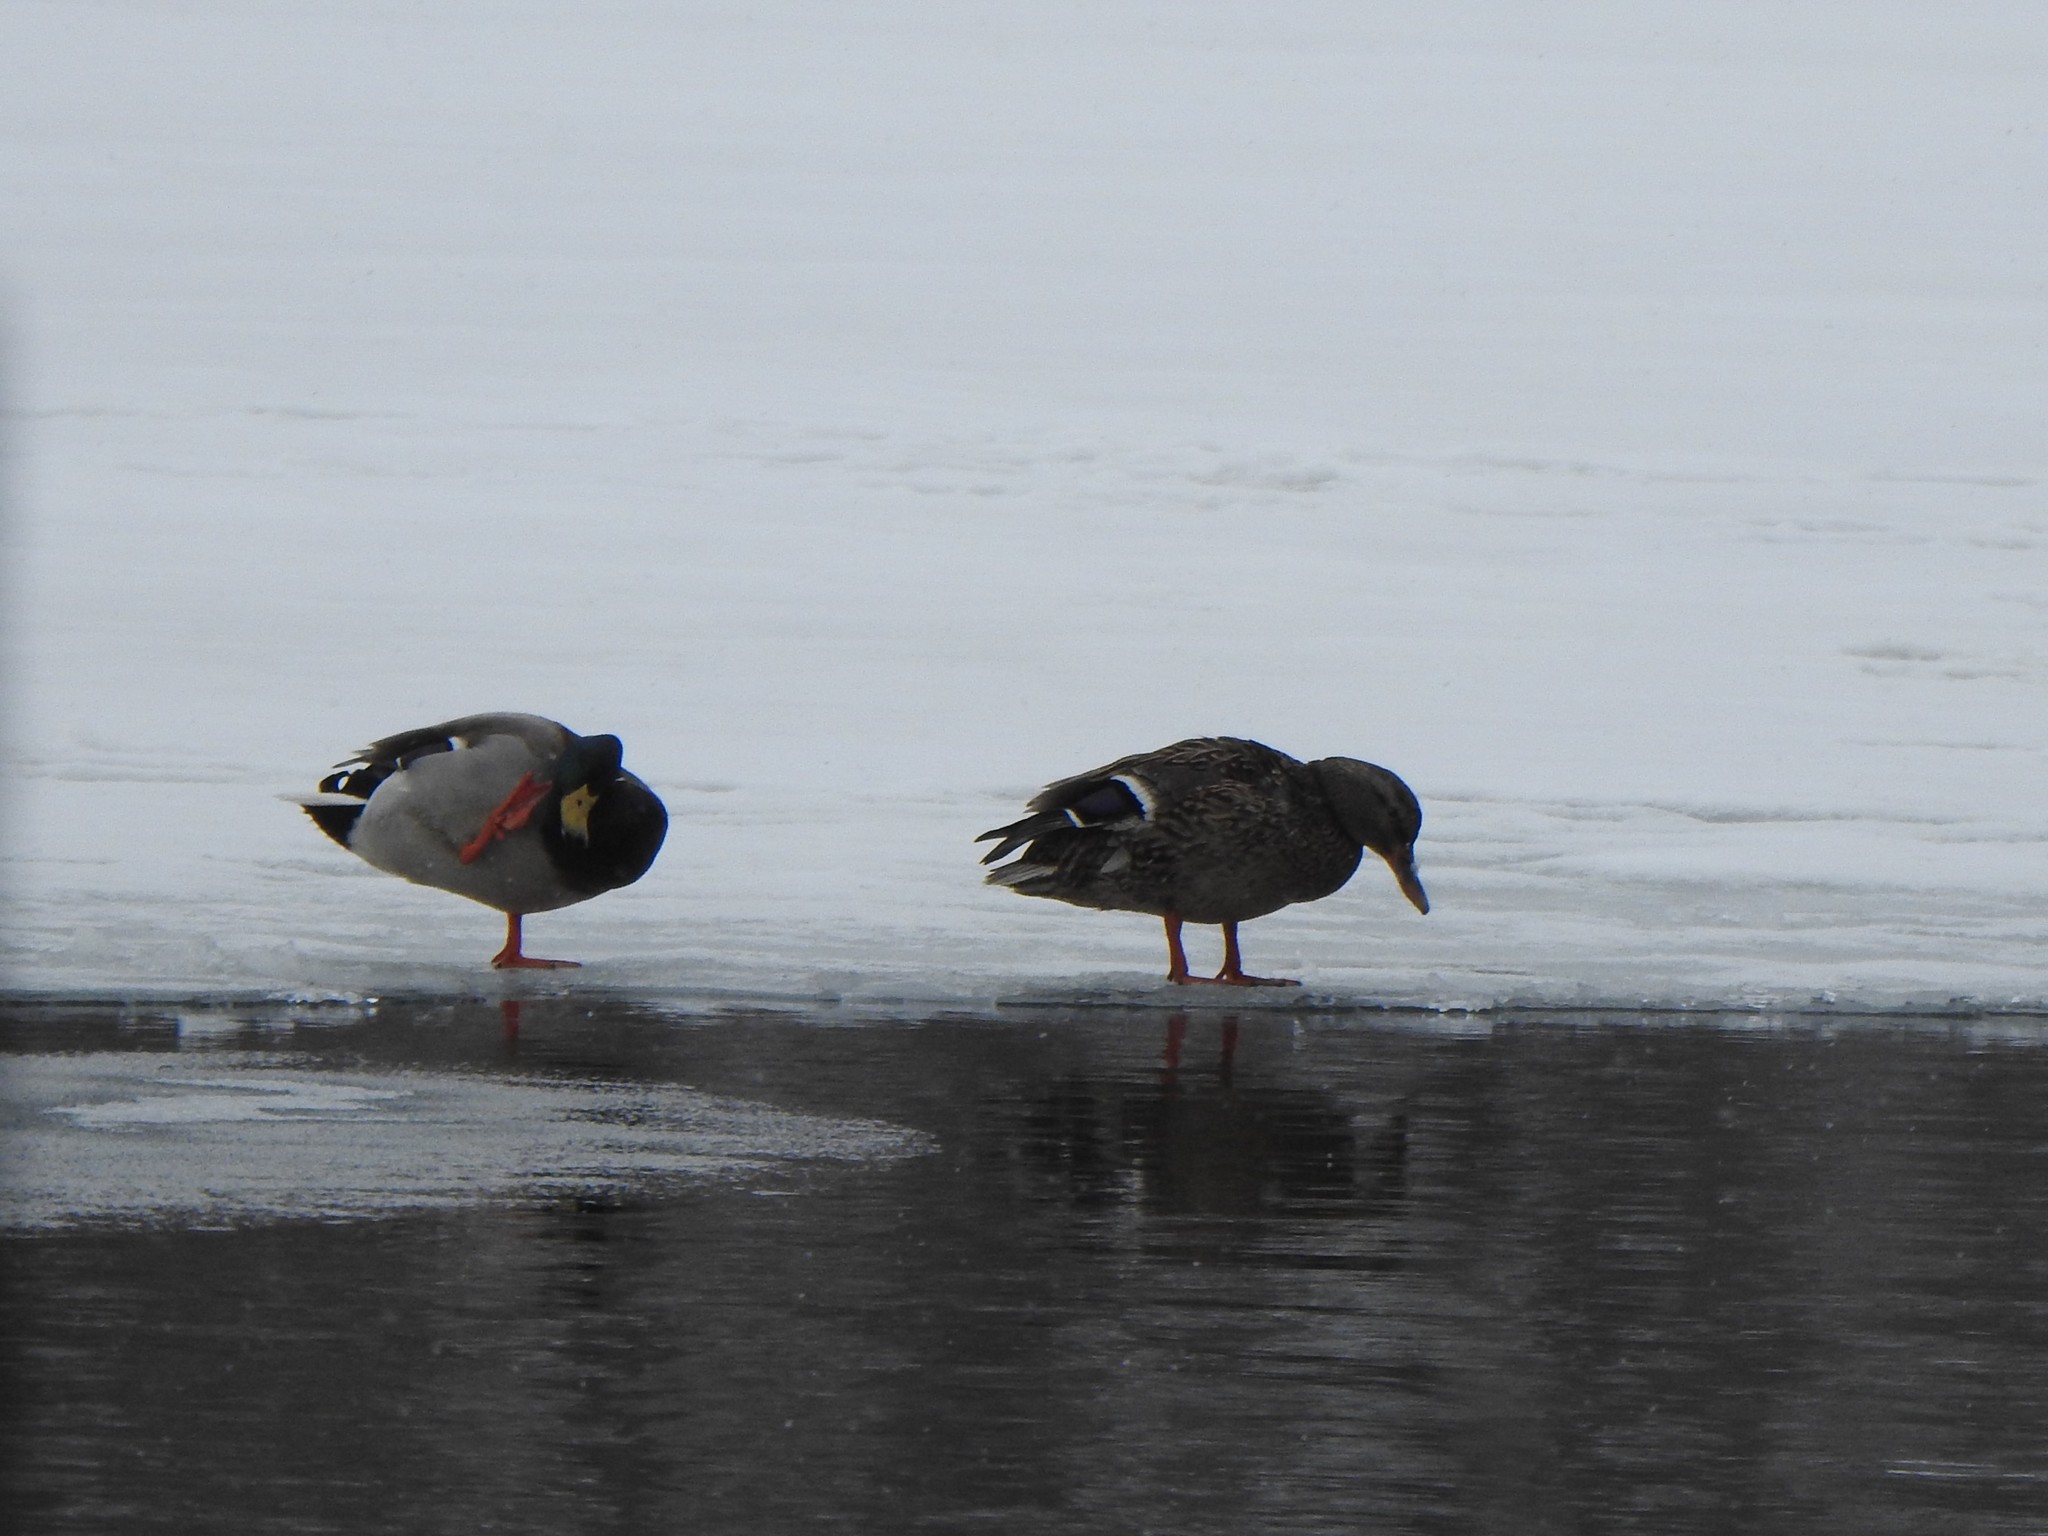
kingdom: Animalia
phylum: Chordata
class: Aves
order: Anseriformes
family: Anatidae
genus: Anas
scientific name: Anas platyrhynchos
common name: Mallard
